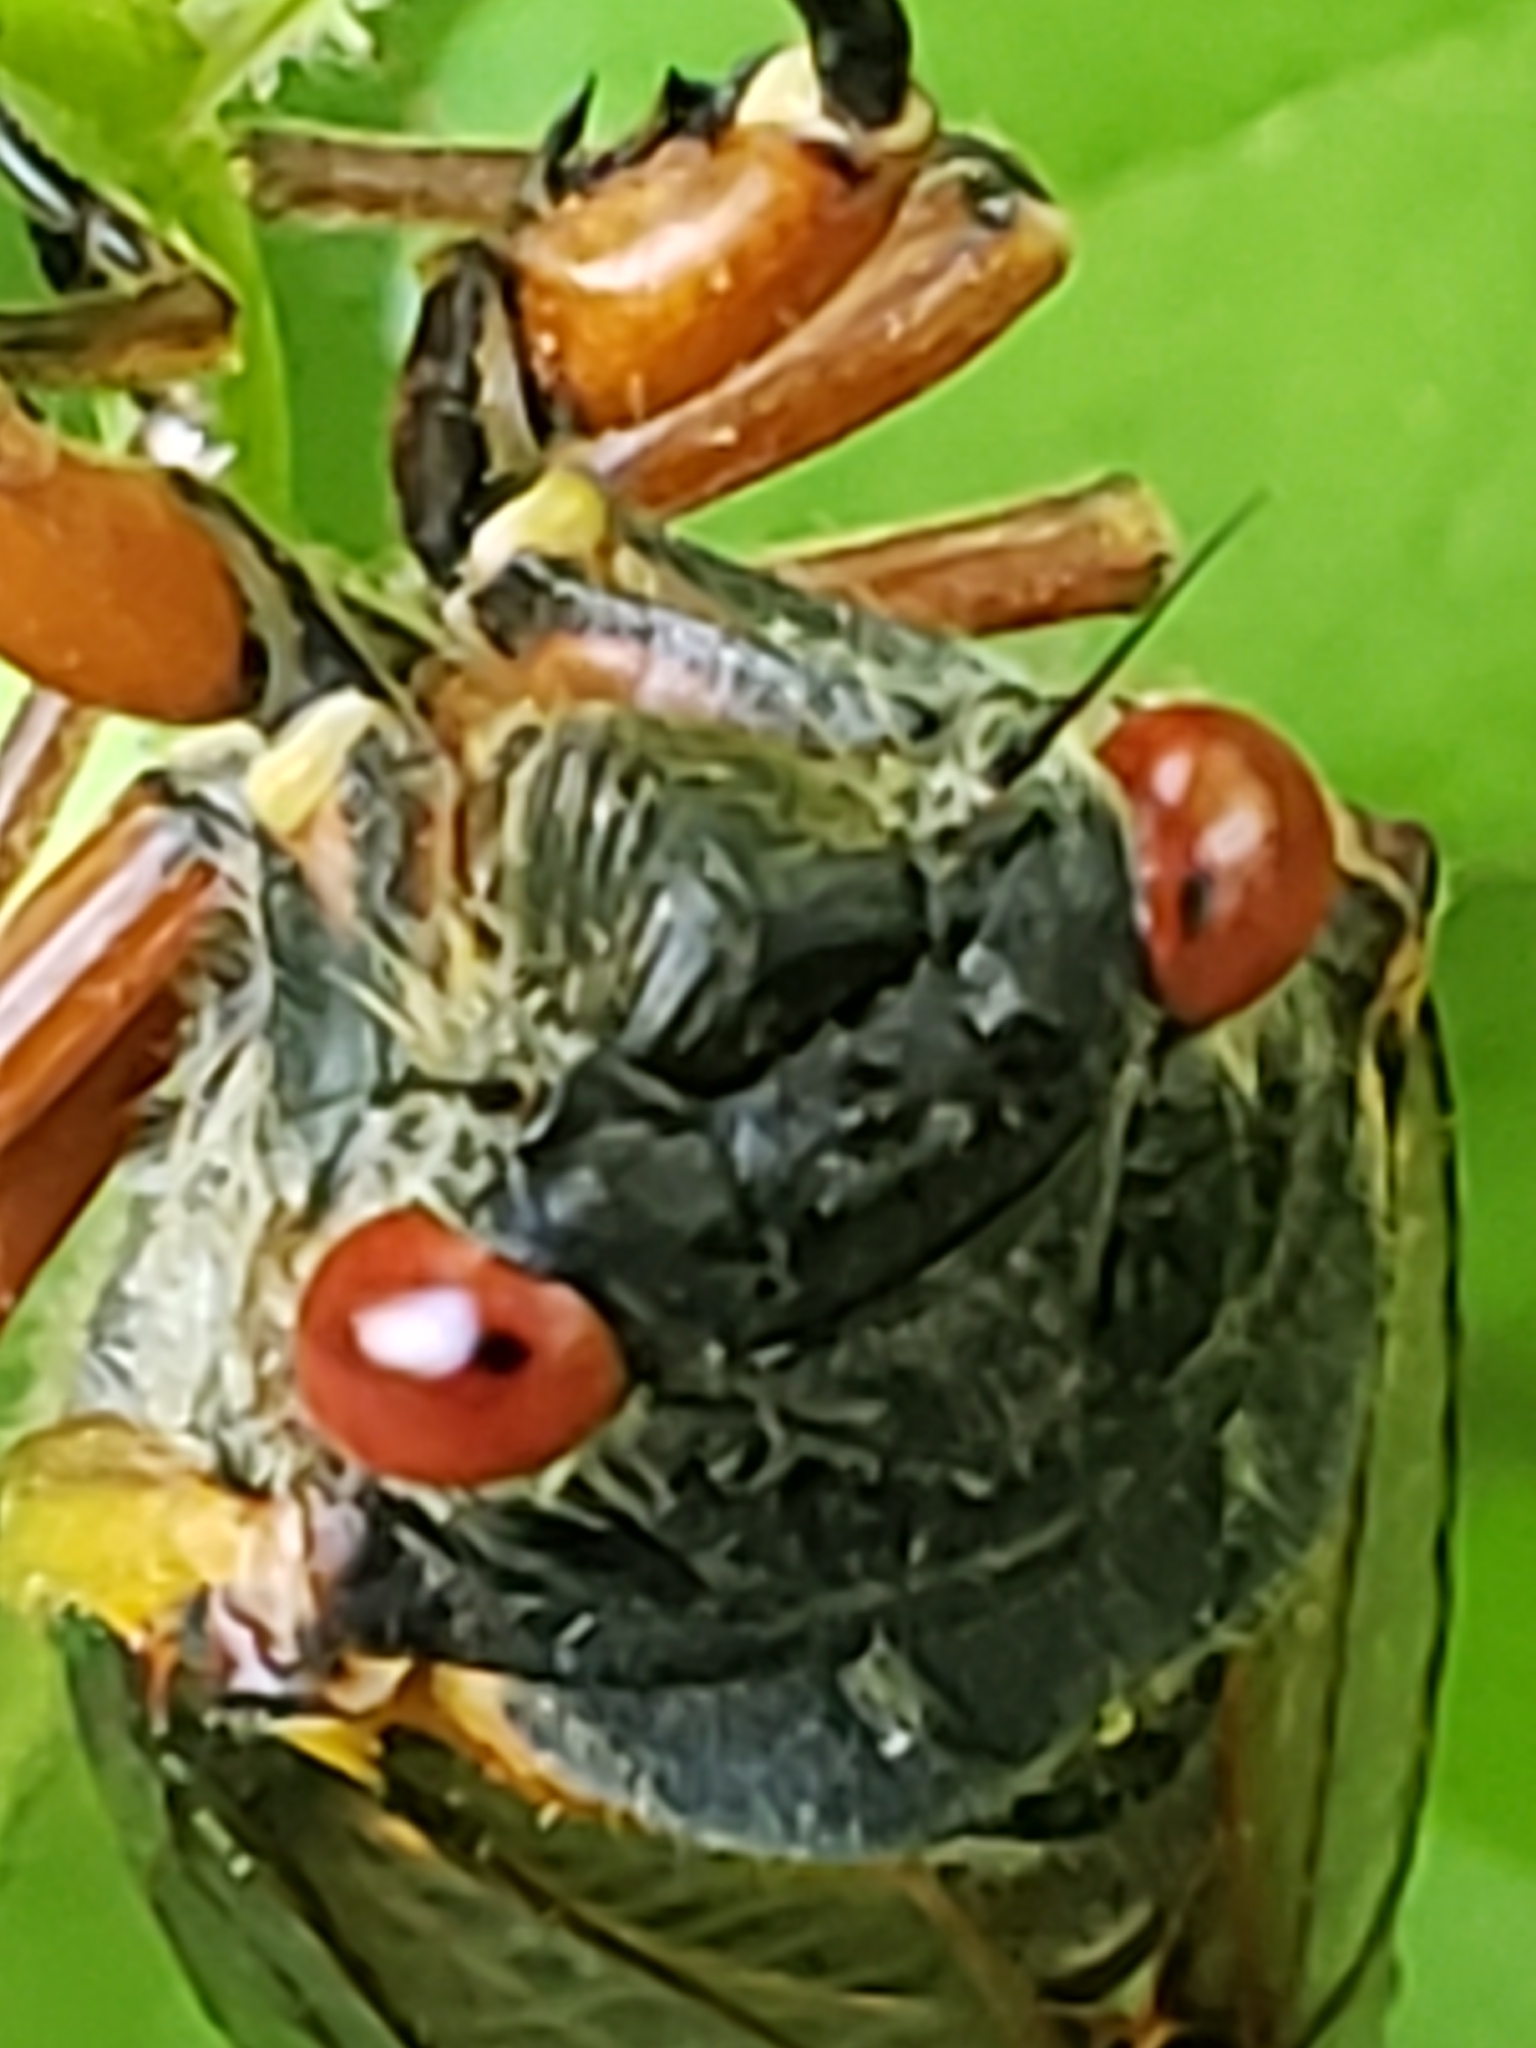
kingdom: Animalia
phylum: Arthropoda
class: Insecta
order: Hemiptera
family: Cicadidae
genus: Magicicada
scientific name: Magicicada
